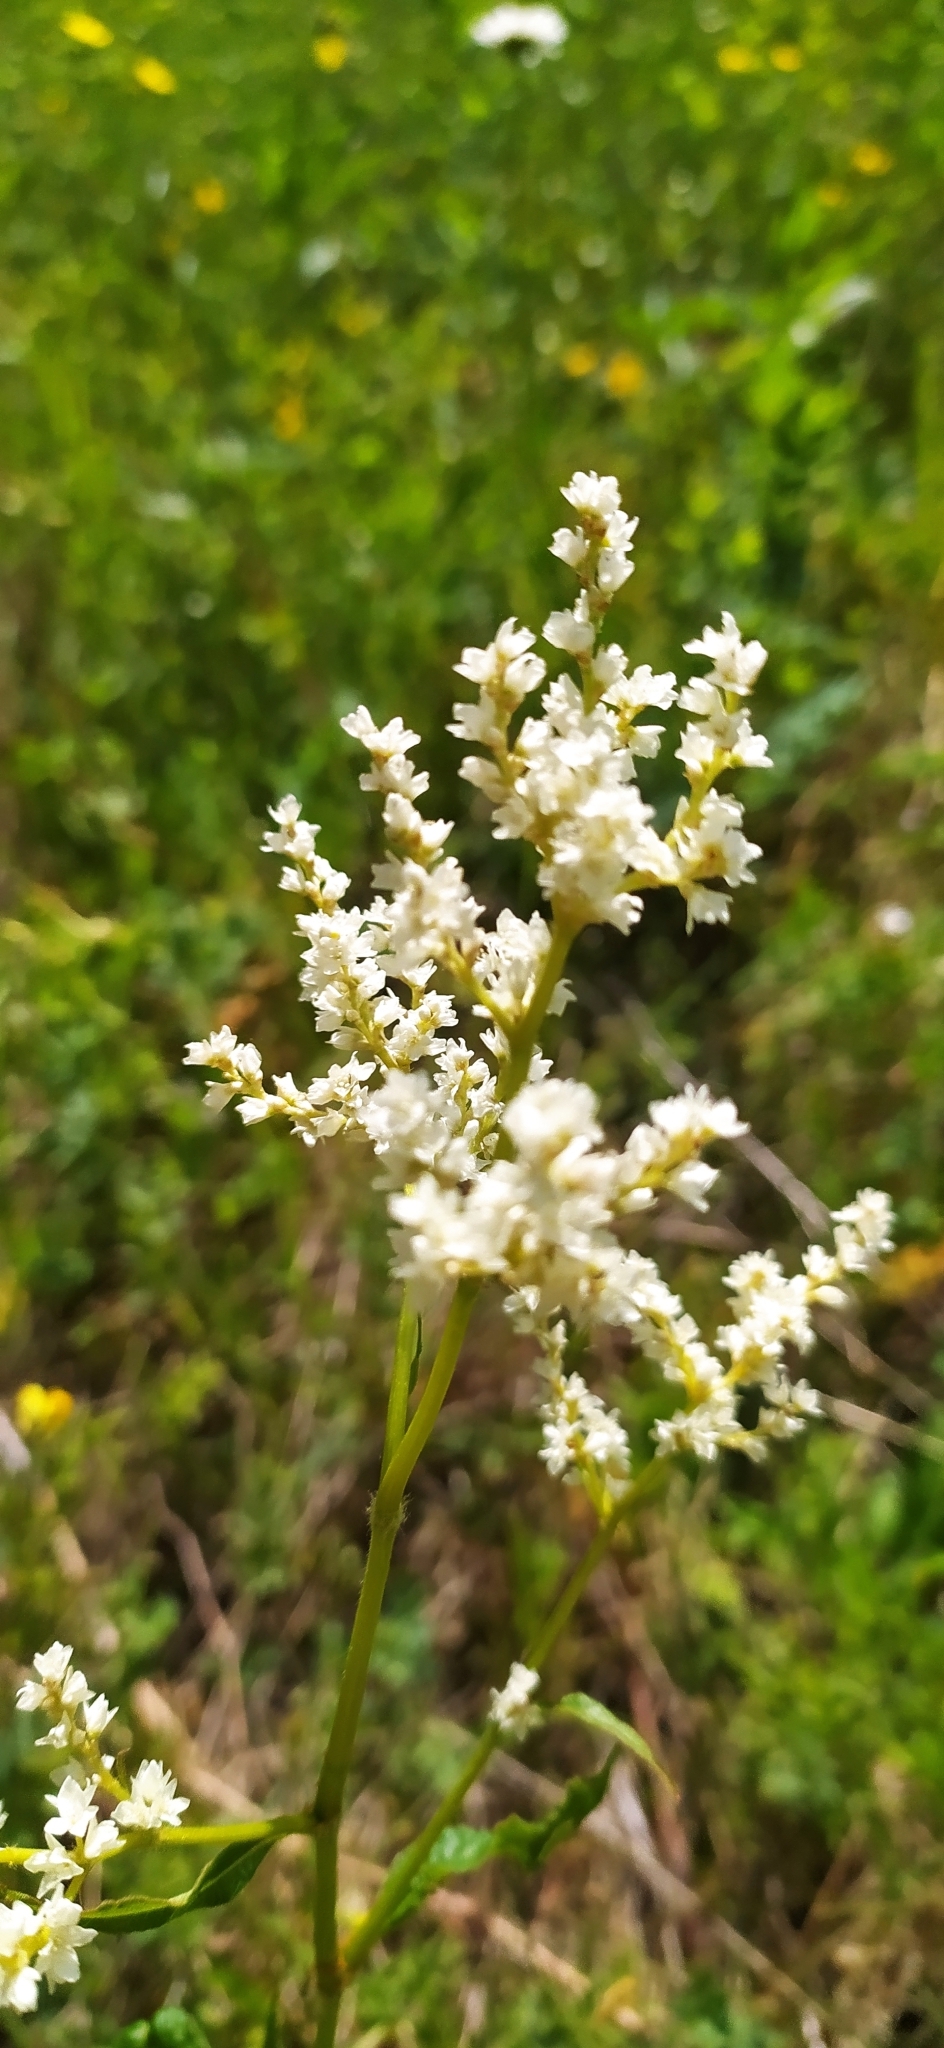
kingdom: Plantae
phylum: Tracheophyta
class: Magnoliopsida
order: Caryophyllales
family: Polygonaceae
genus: Koenigia
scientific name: Koenigia alpina
